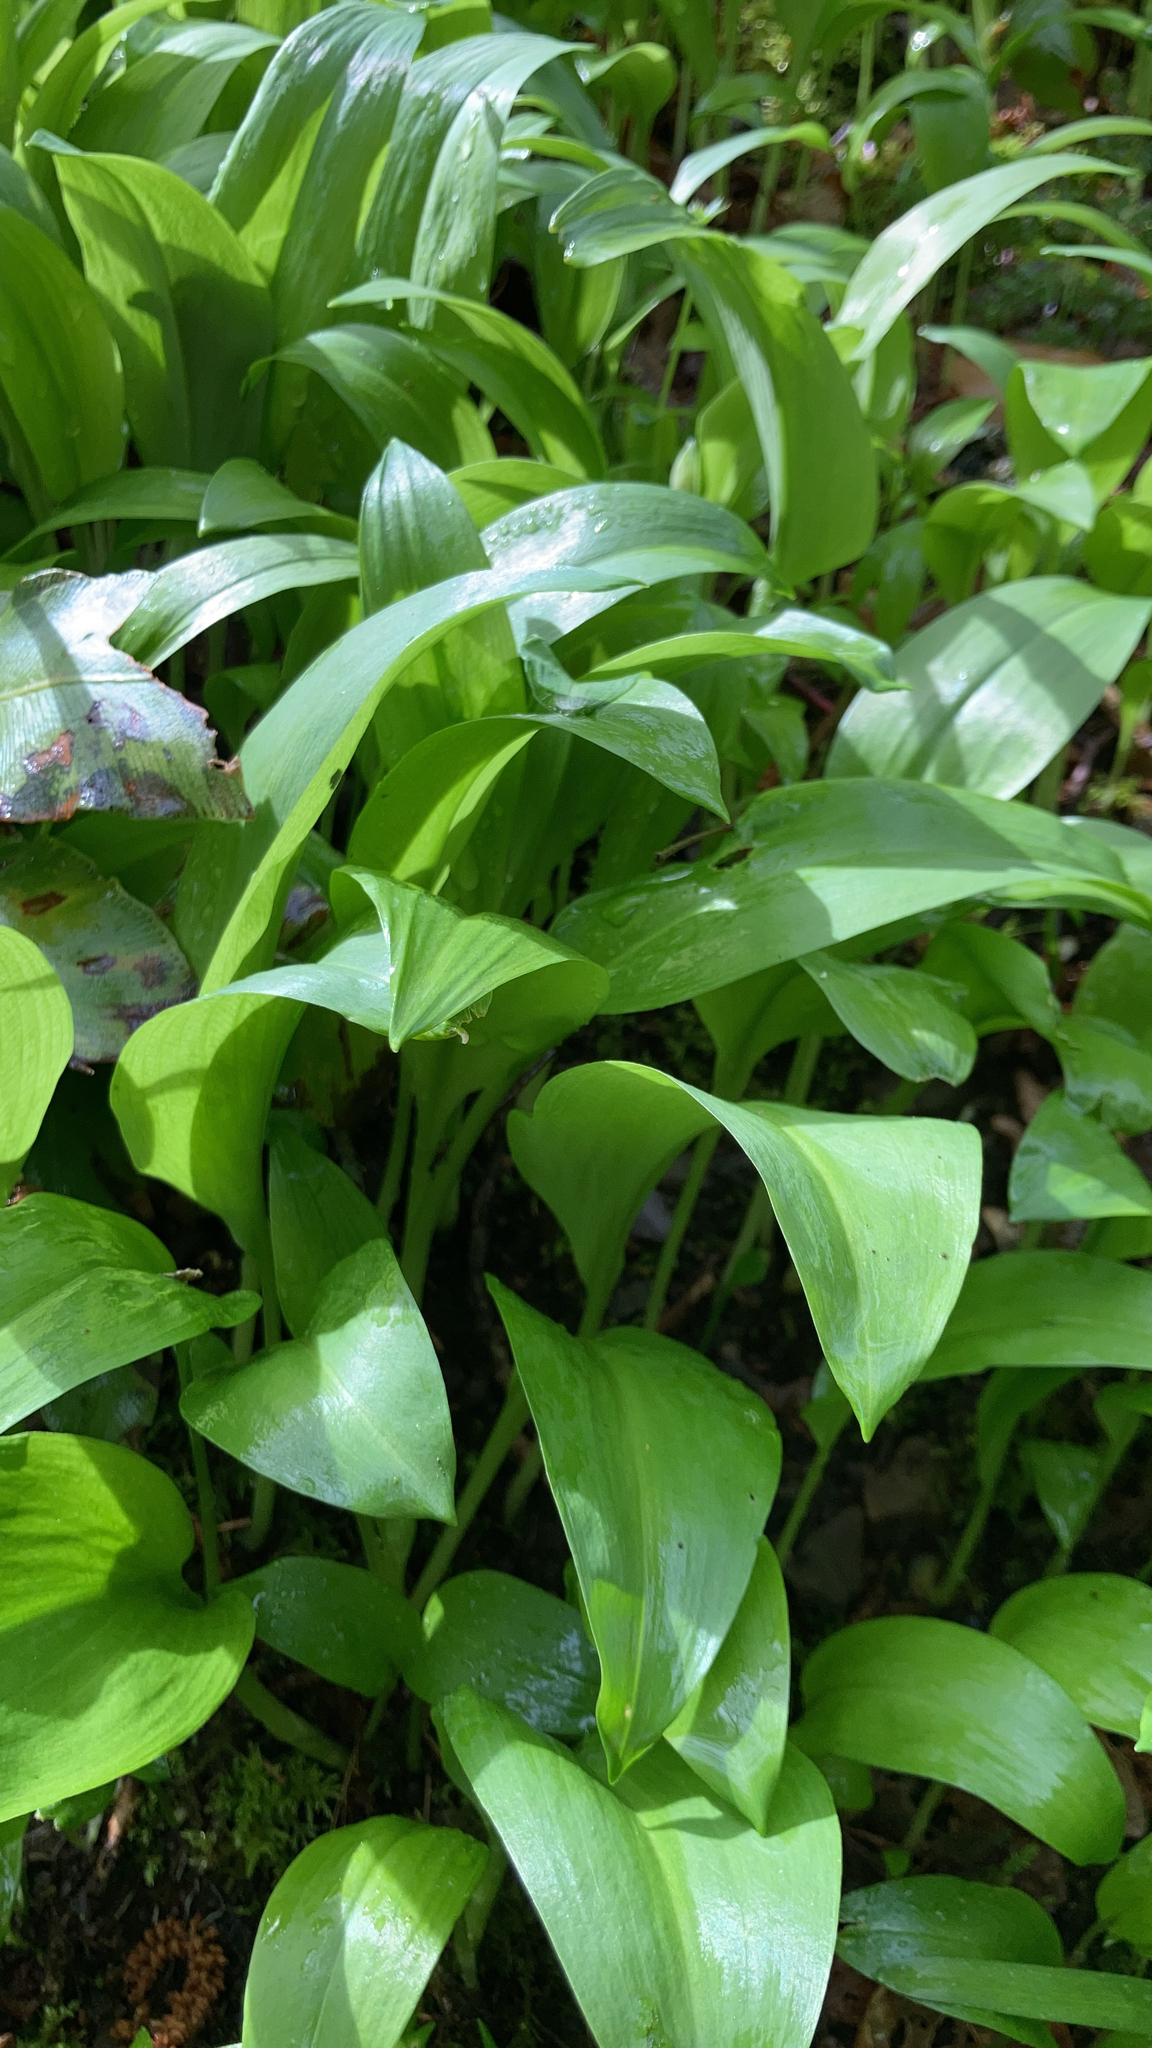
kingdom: Plantae
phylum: Tracheophyta
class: Liliopsida
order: Asparagales
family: Amaryllidaceae
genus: Allium
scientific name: Allium ursinum
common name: Ramsons
